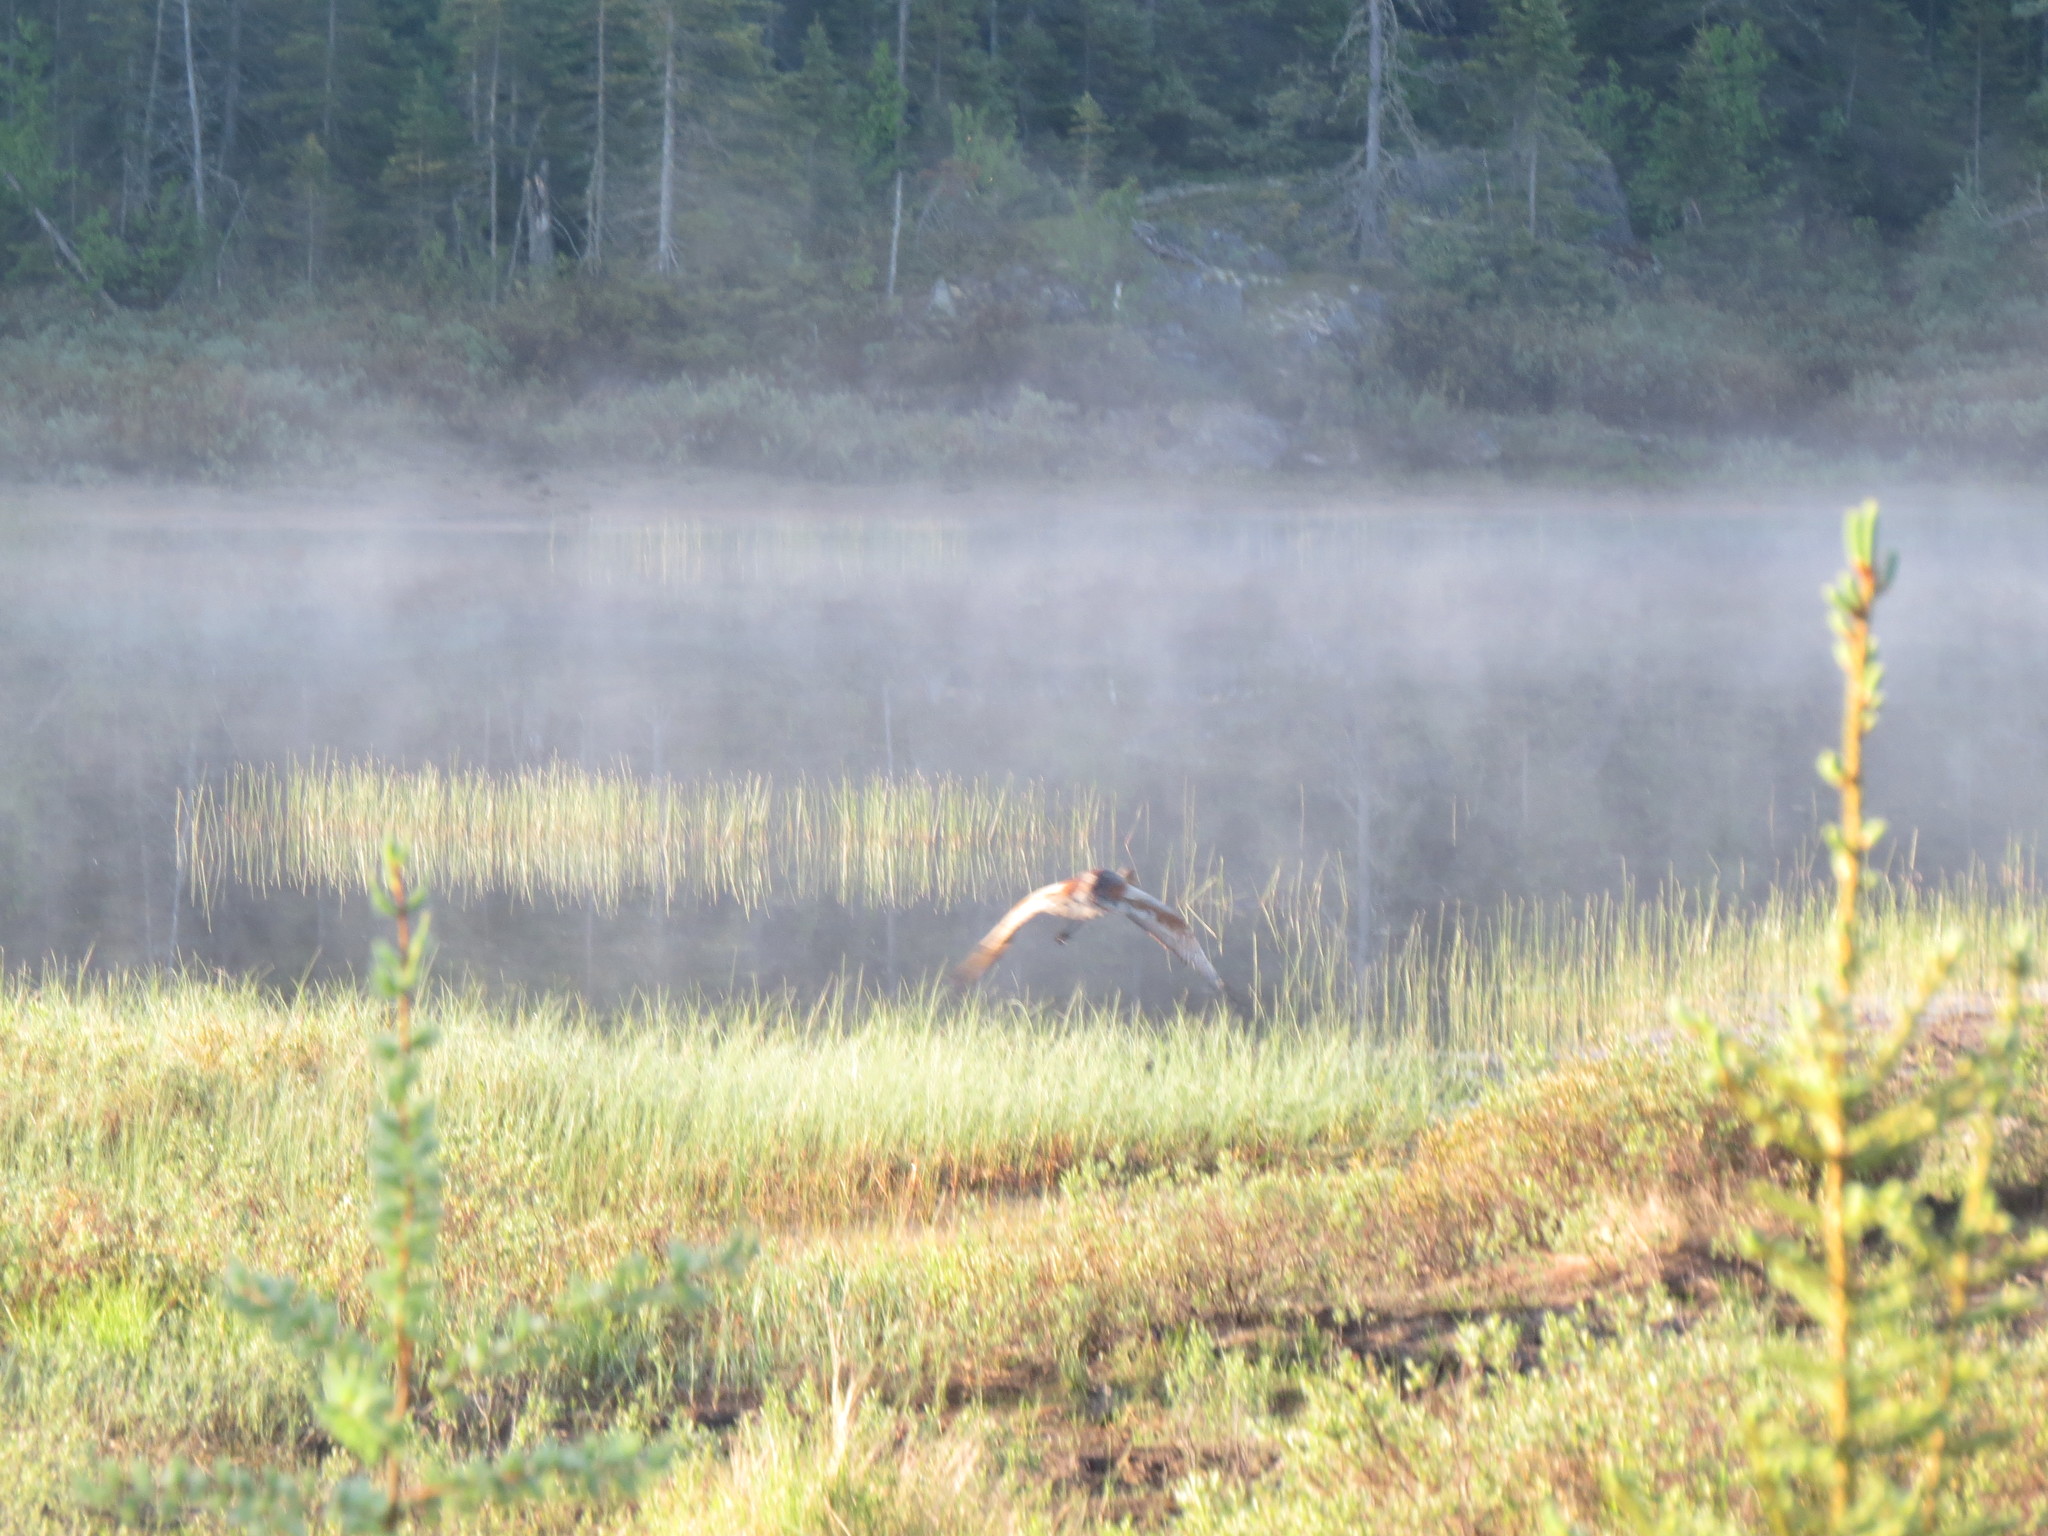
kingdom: Animalia
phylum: Chordata
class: Aves
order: Gruiformes
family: Gruidae
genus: Grus
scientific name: Grus canadensis
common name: Sandhill crane
